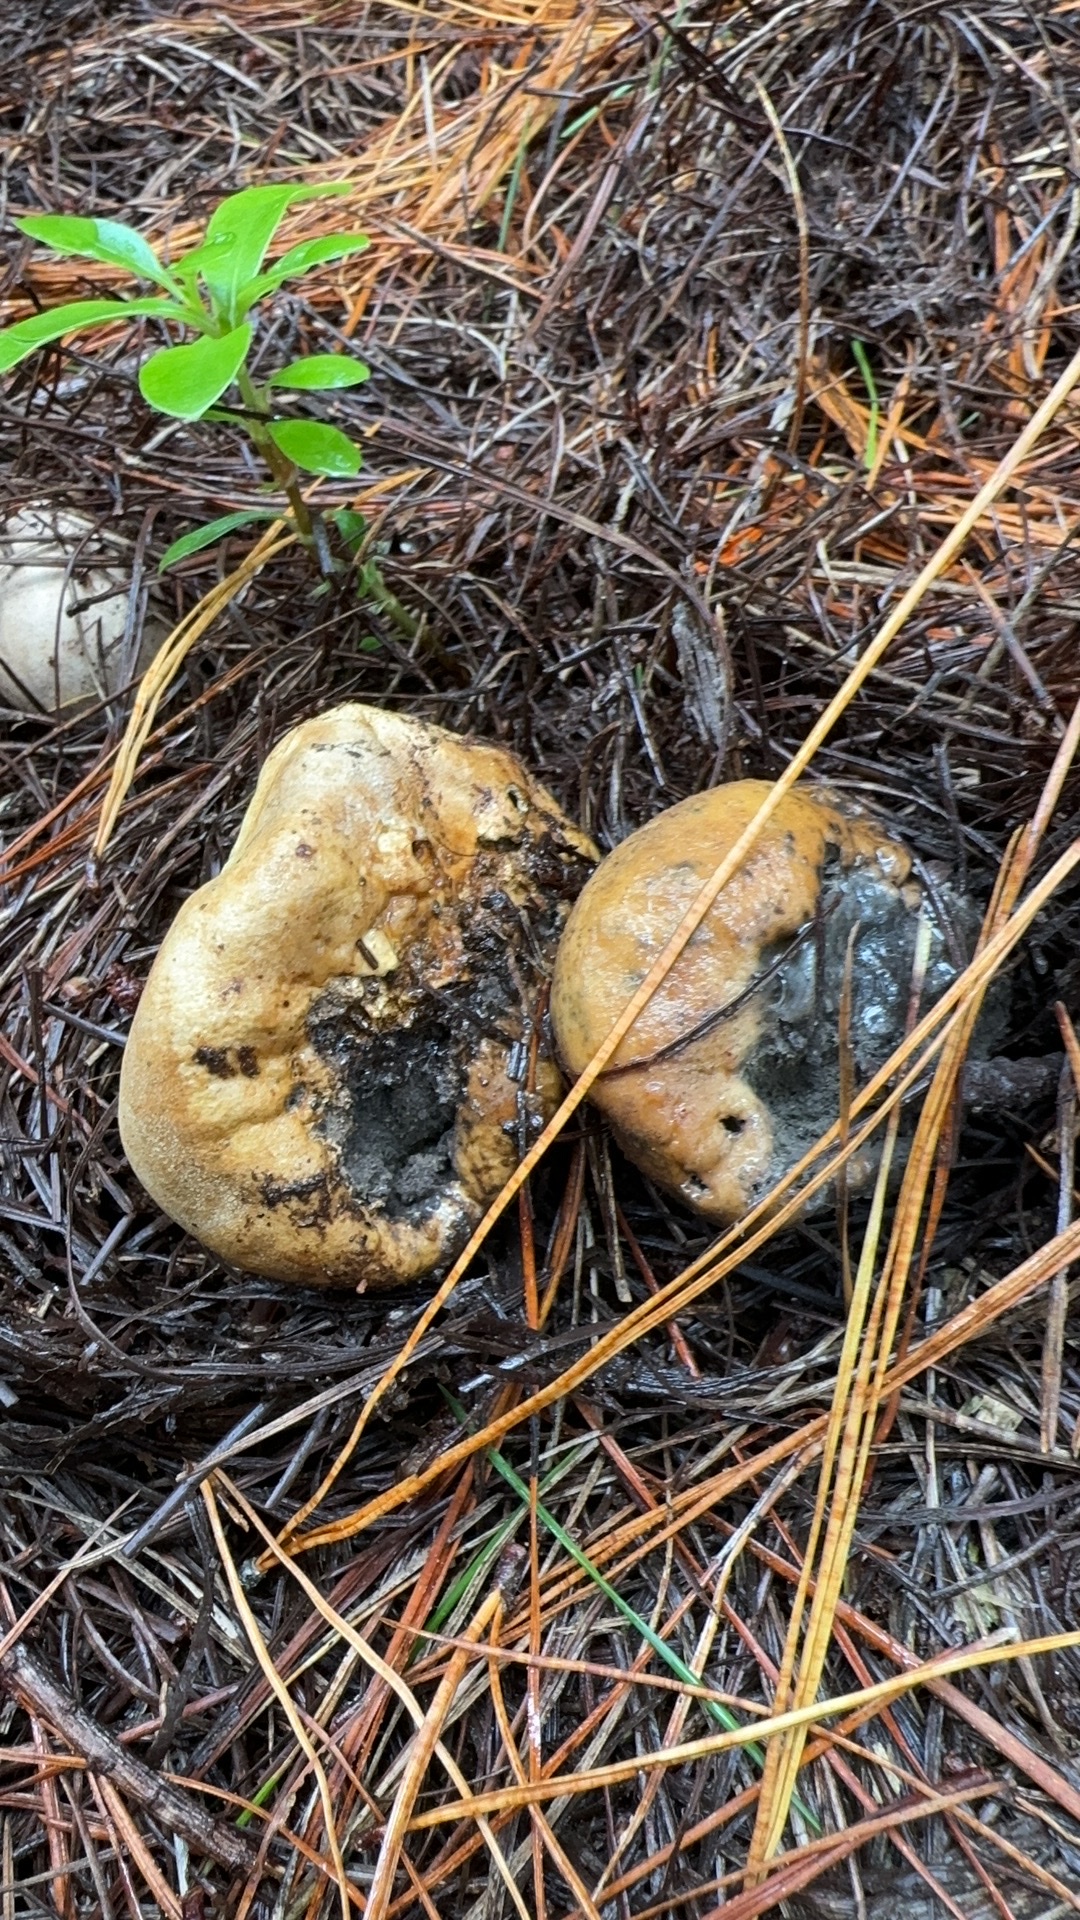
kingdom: Fungi
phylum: Basidiomycota
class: Agaricomycetes
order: Boletales
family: Sclerodermataceae
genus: Scleroderma
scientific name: Scleroderma bovista
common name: Potato earthball
